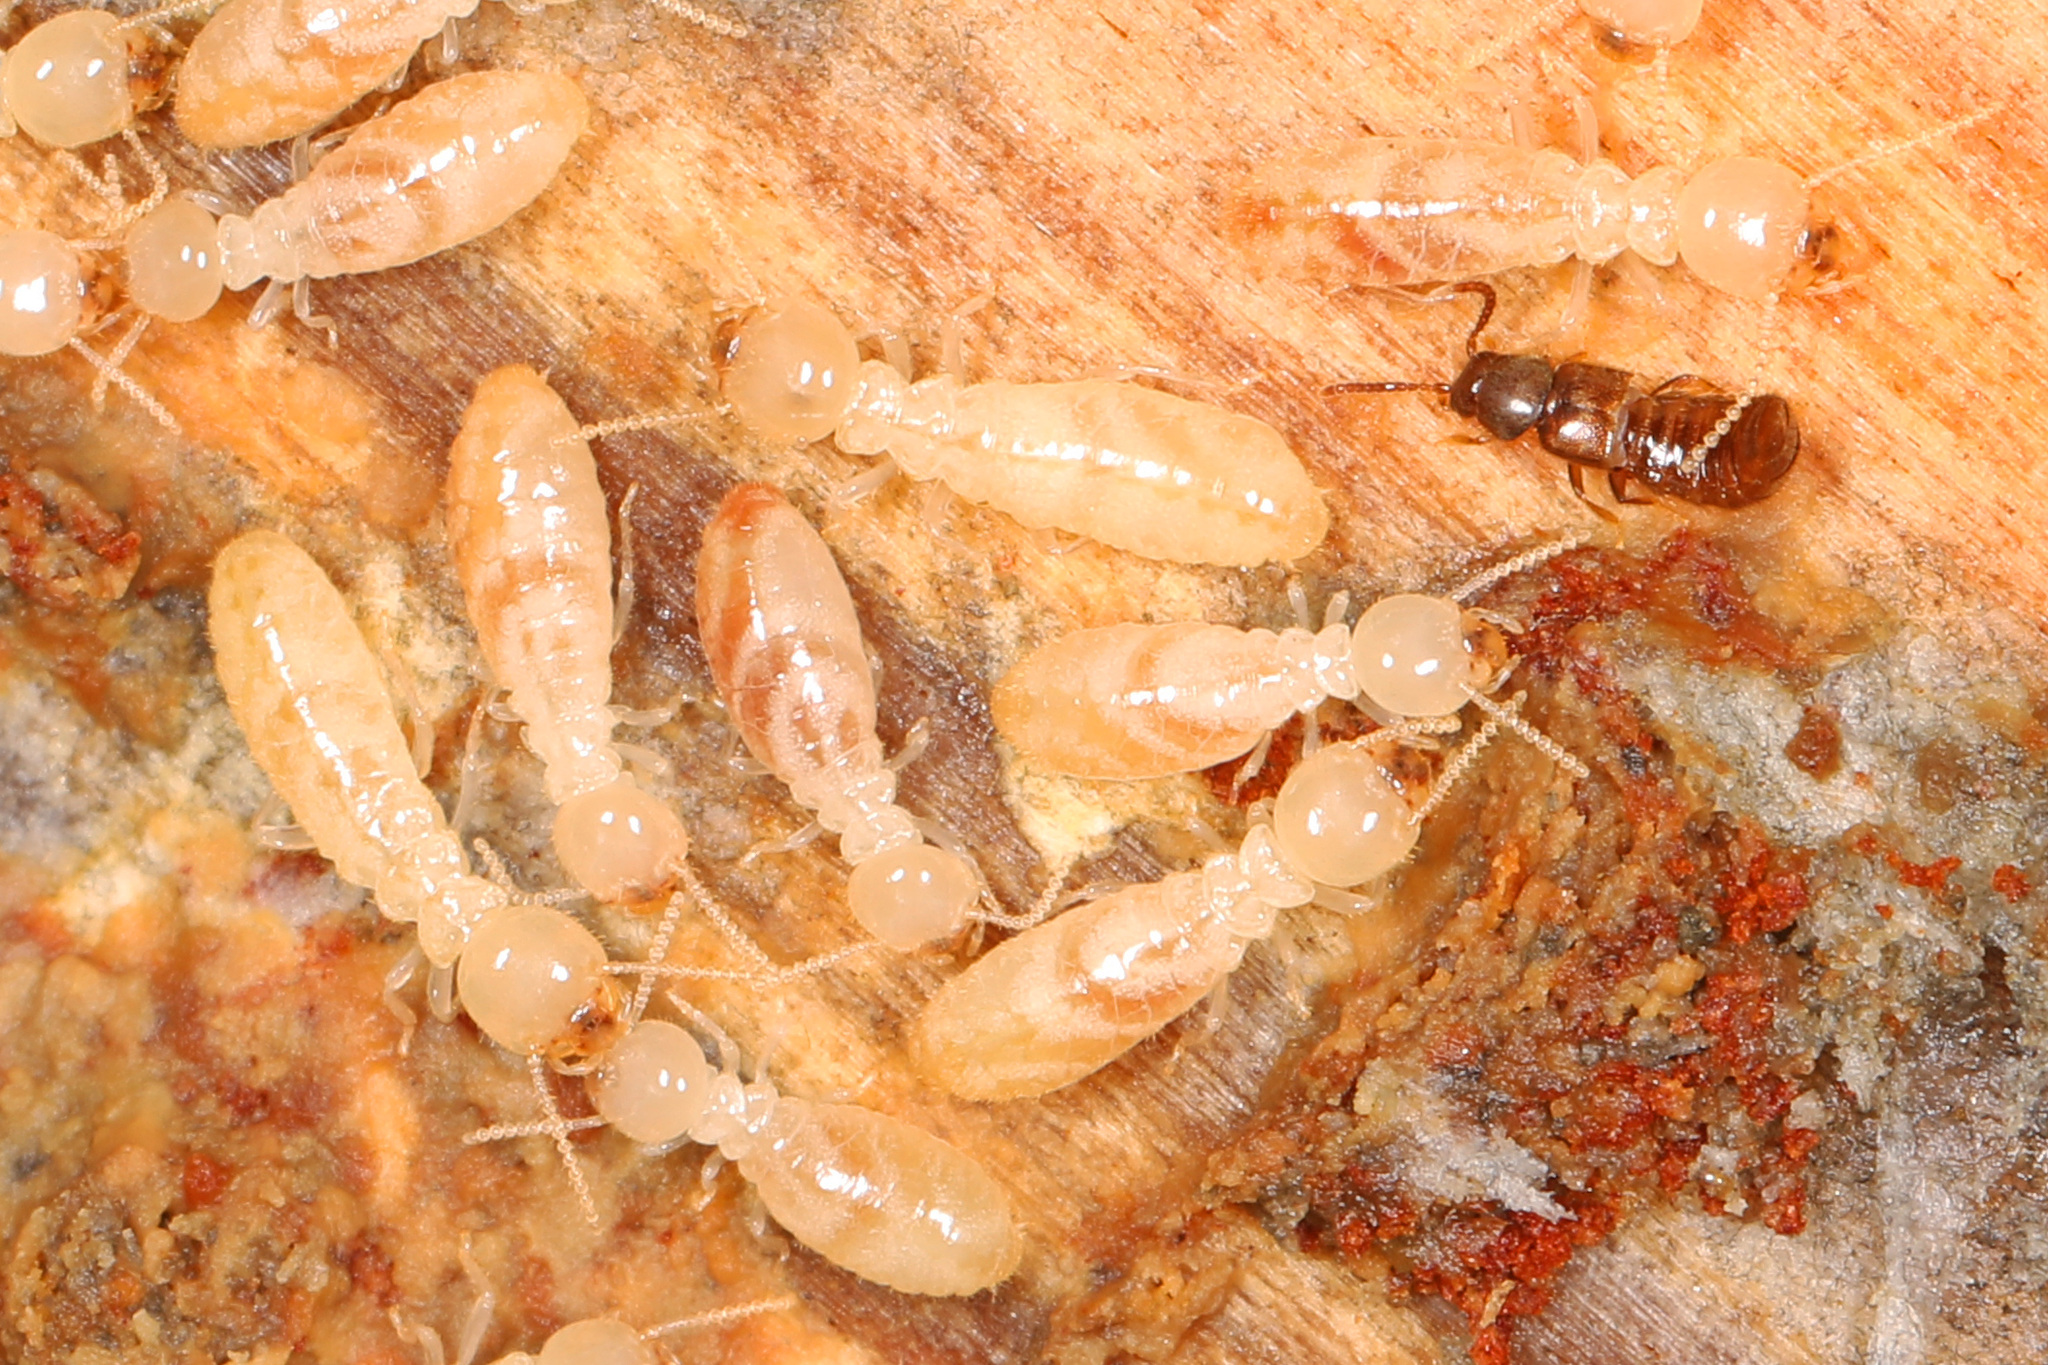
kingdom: Animalia
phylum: Arthropoda
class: Insecta
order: Blattodea
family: Rhinotermitidae
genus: Reticulitermes
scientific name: Reticulitermes flavipes
